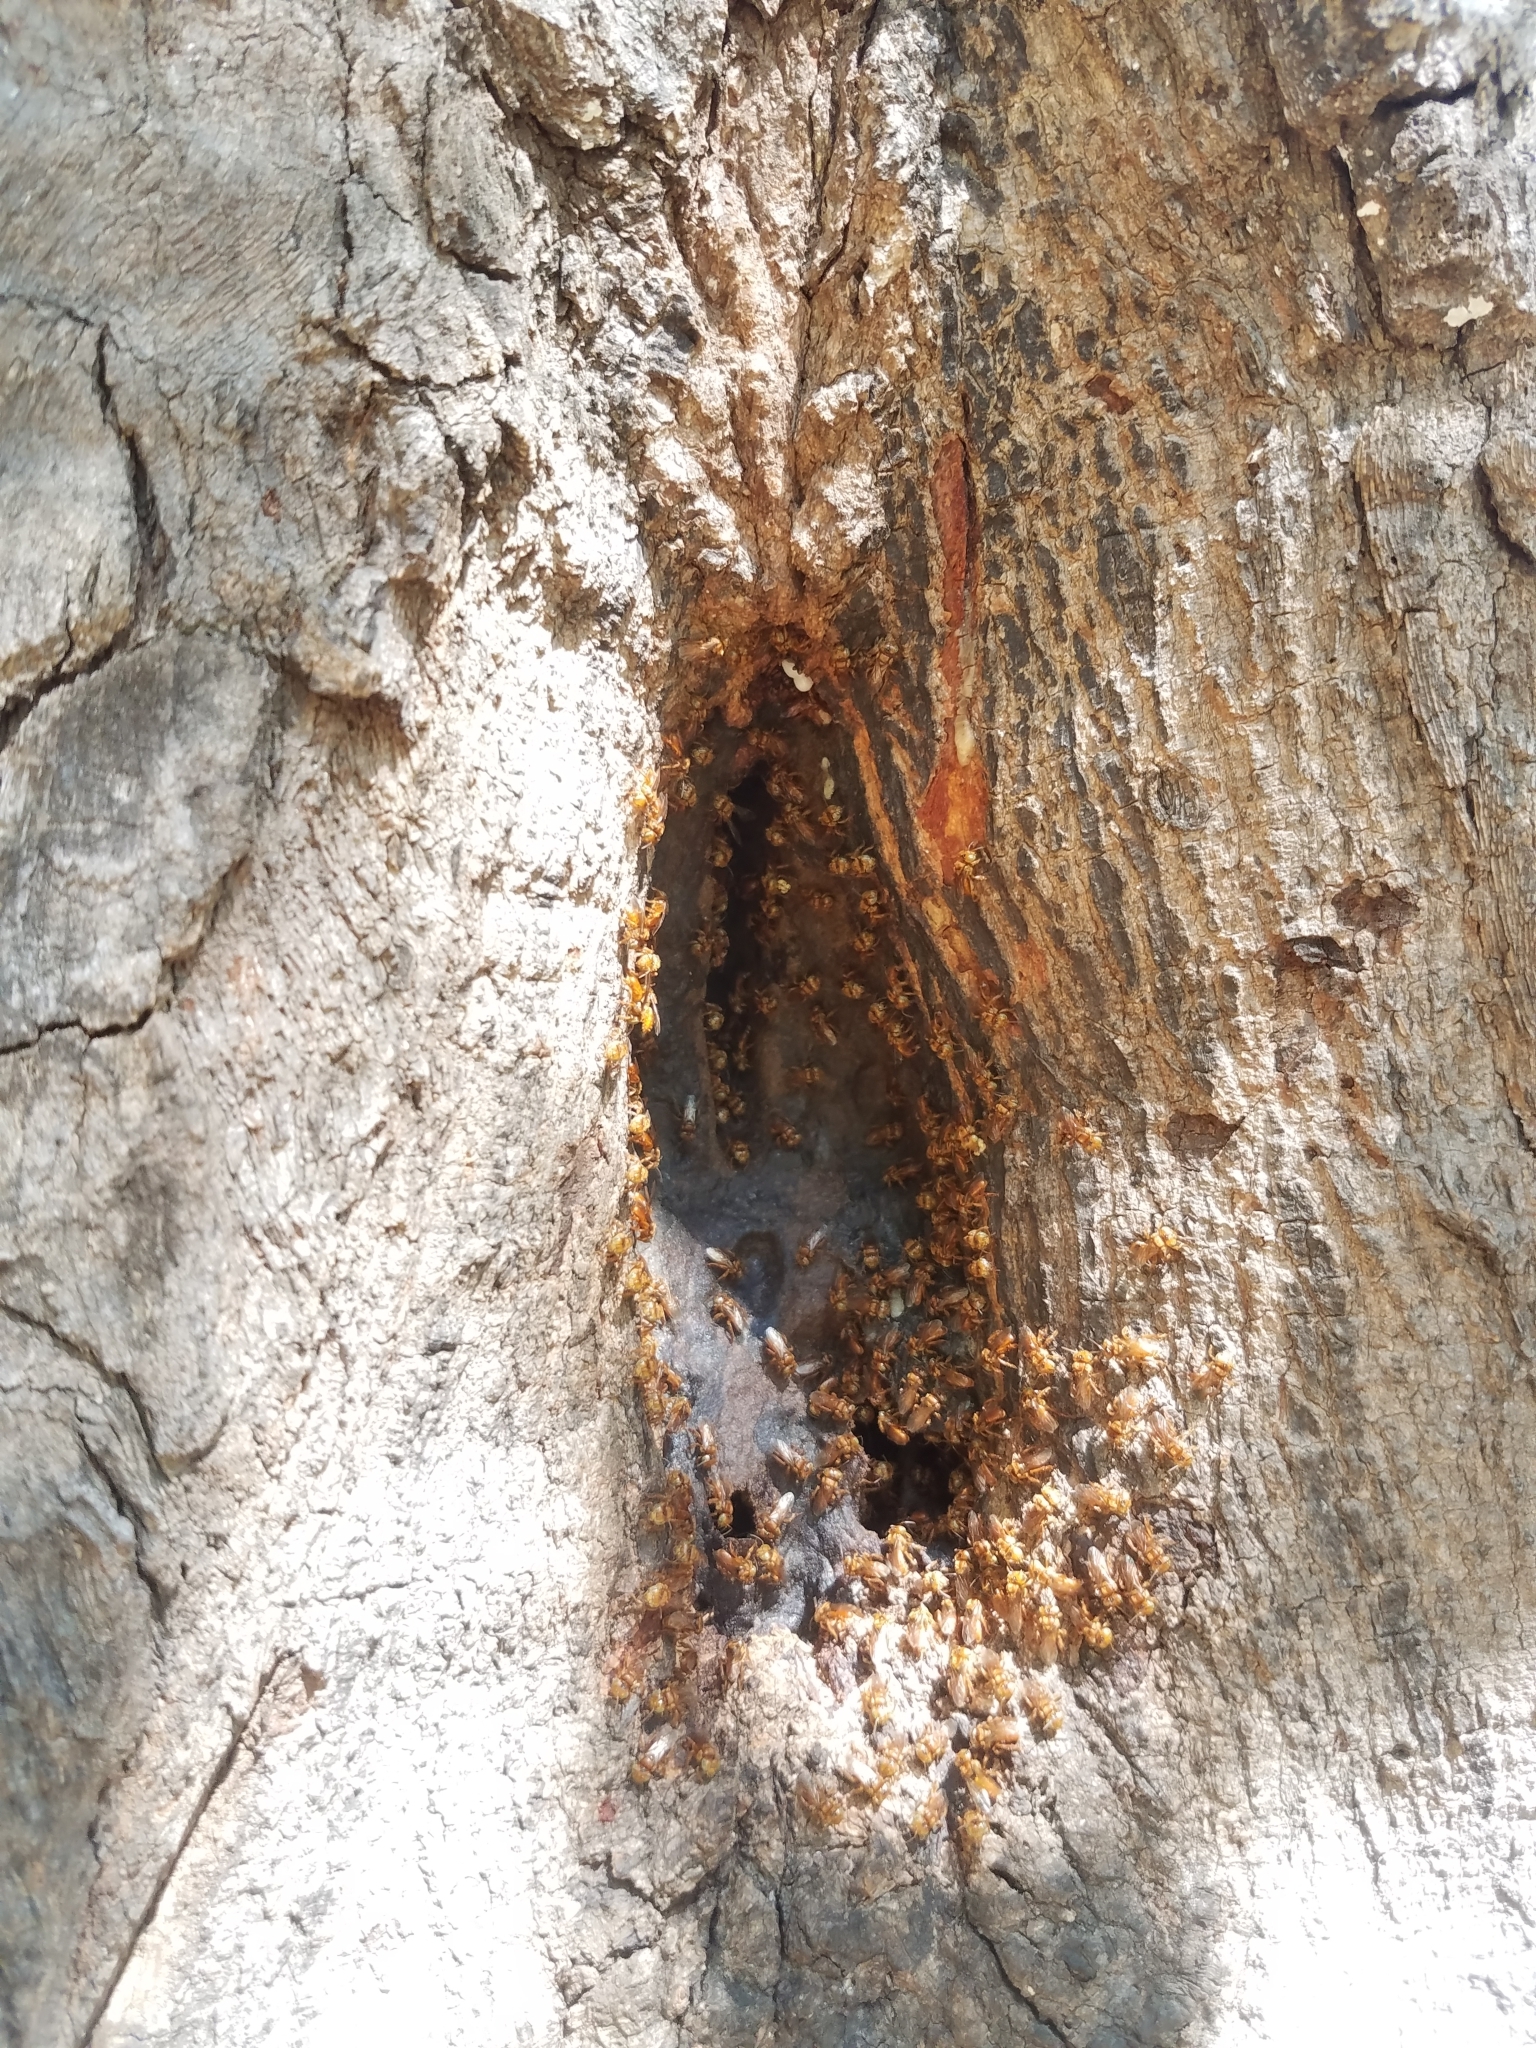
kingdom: Animalia
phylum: Arthropoda
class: Insecta
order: Hymenoptera
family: Apidae
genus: Oxytrigona
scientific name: Oxytrigona mellicolor
